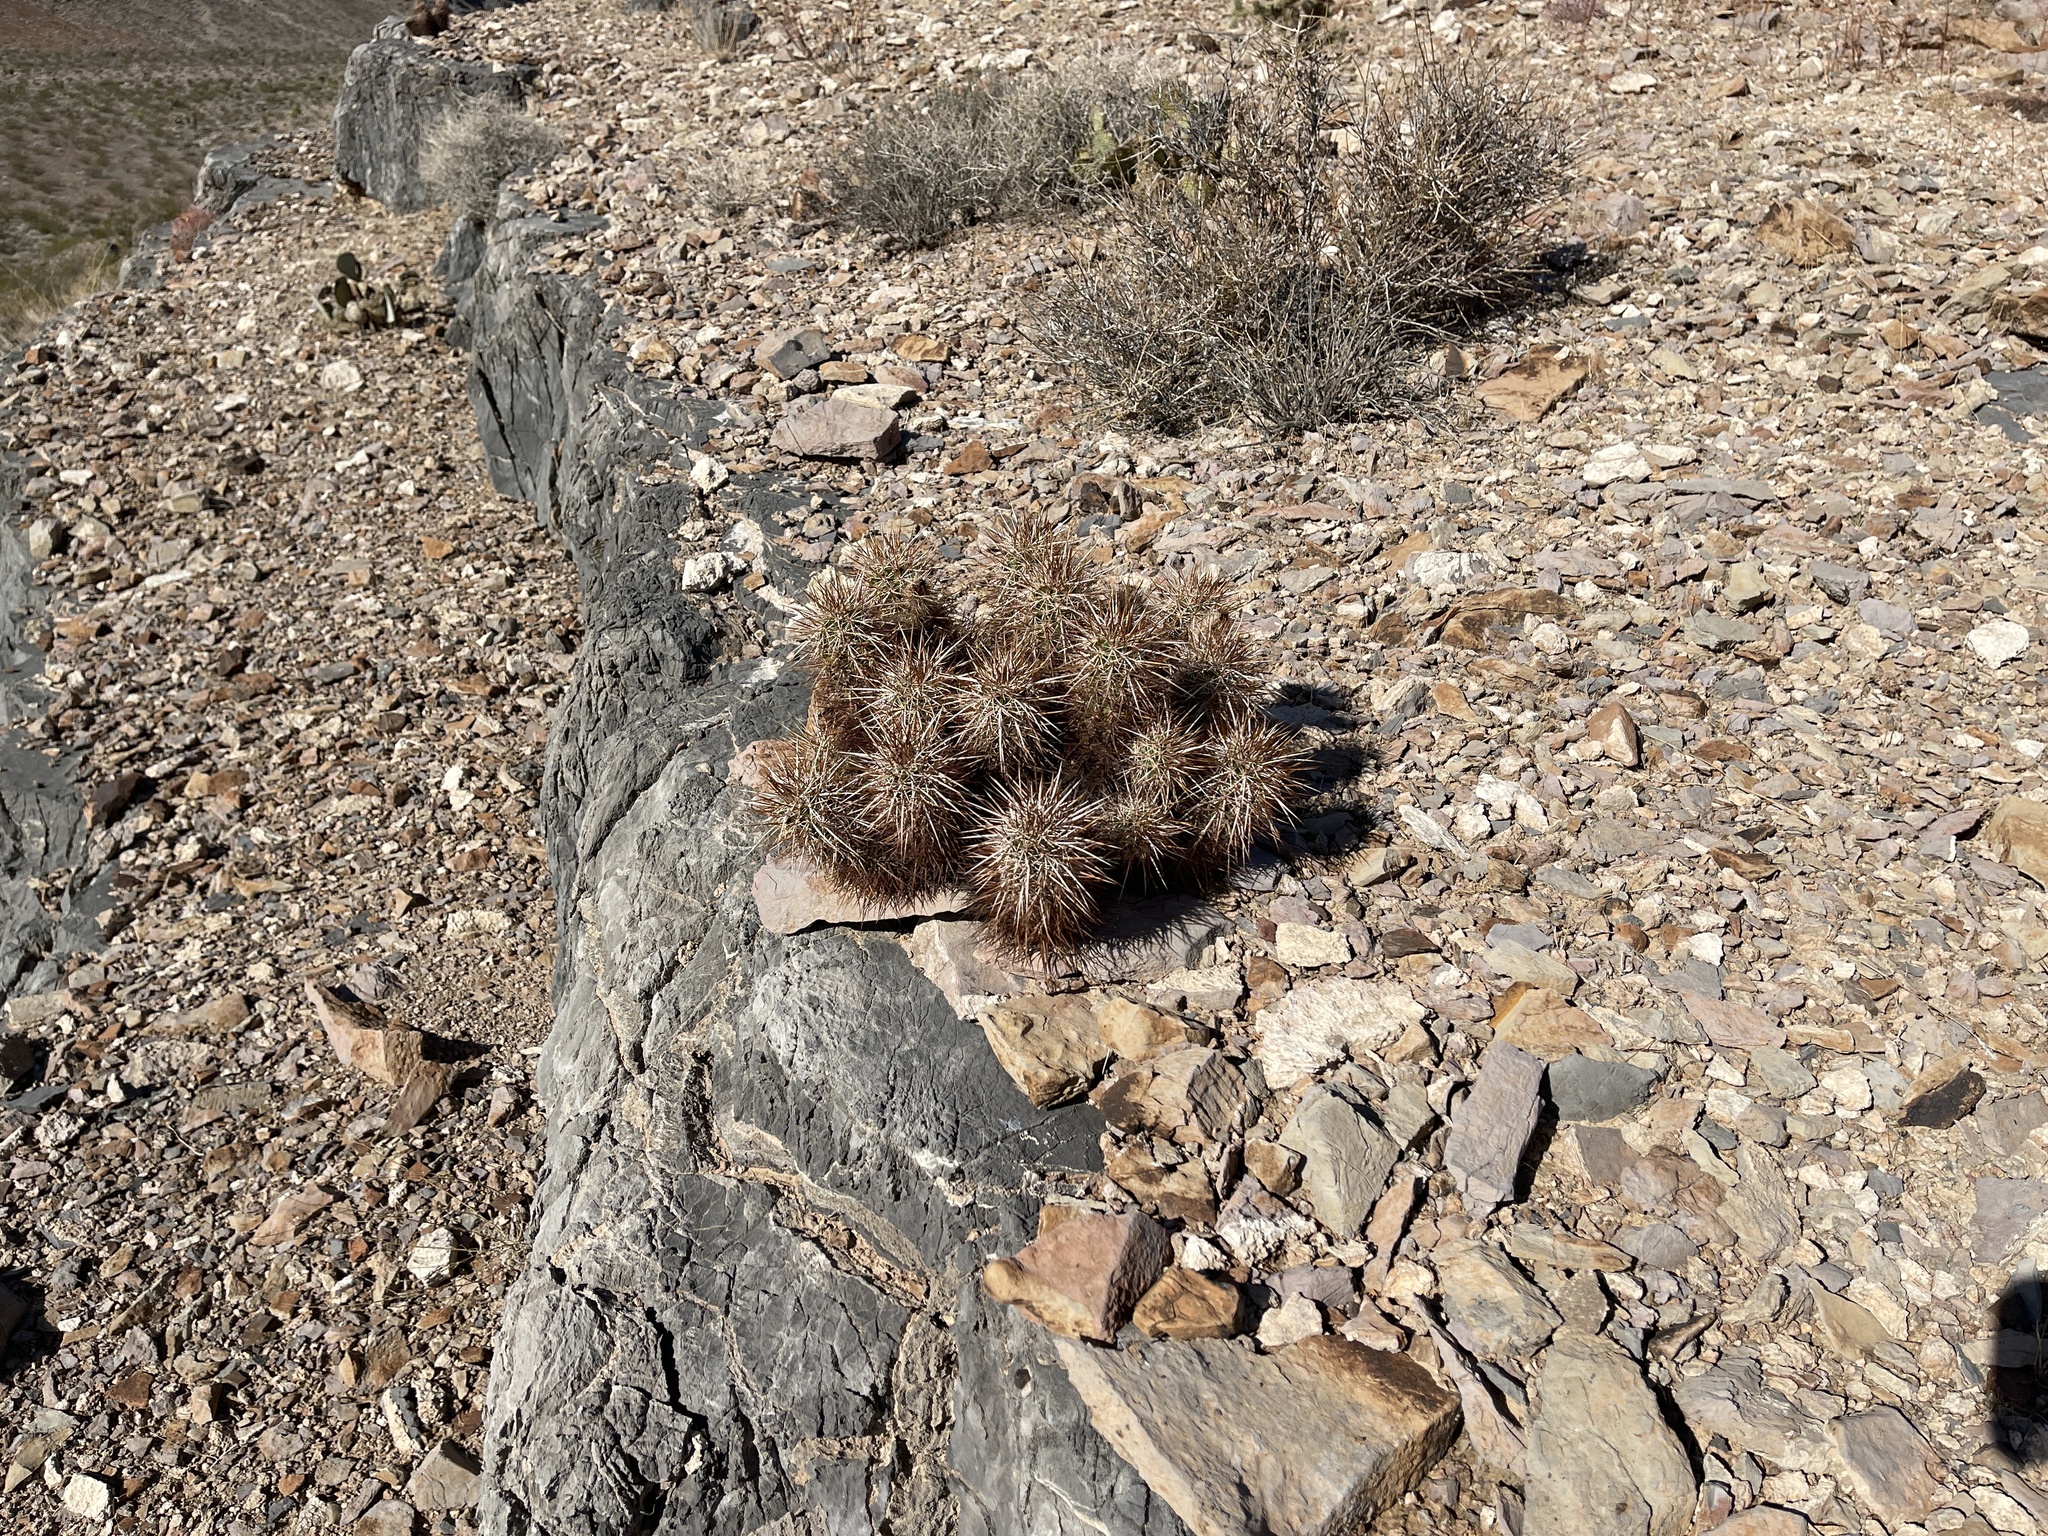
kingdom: Plantae
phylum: Tracheophyta
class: Magnoliopsida
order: Caryophyllales
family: Cactaceae
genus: Echinocereus
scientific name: Echinocereus engelmannii
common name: Engelmann's hedgehog cactus
